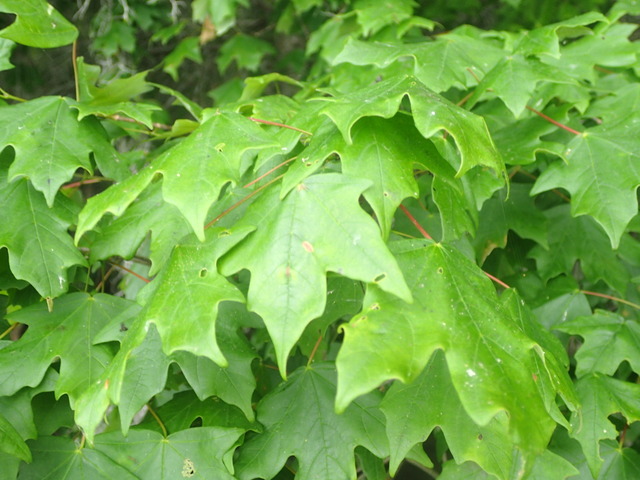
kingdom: Plantae
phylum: Tracheophyta
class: Magnoliopsida
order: Sapindales
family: Sapindaceae
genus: Acer
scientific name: Acer floridanum
